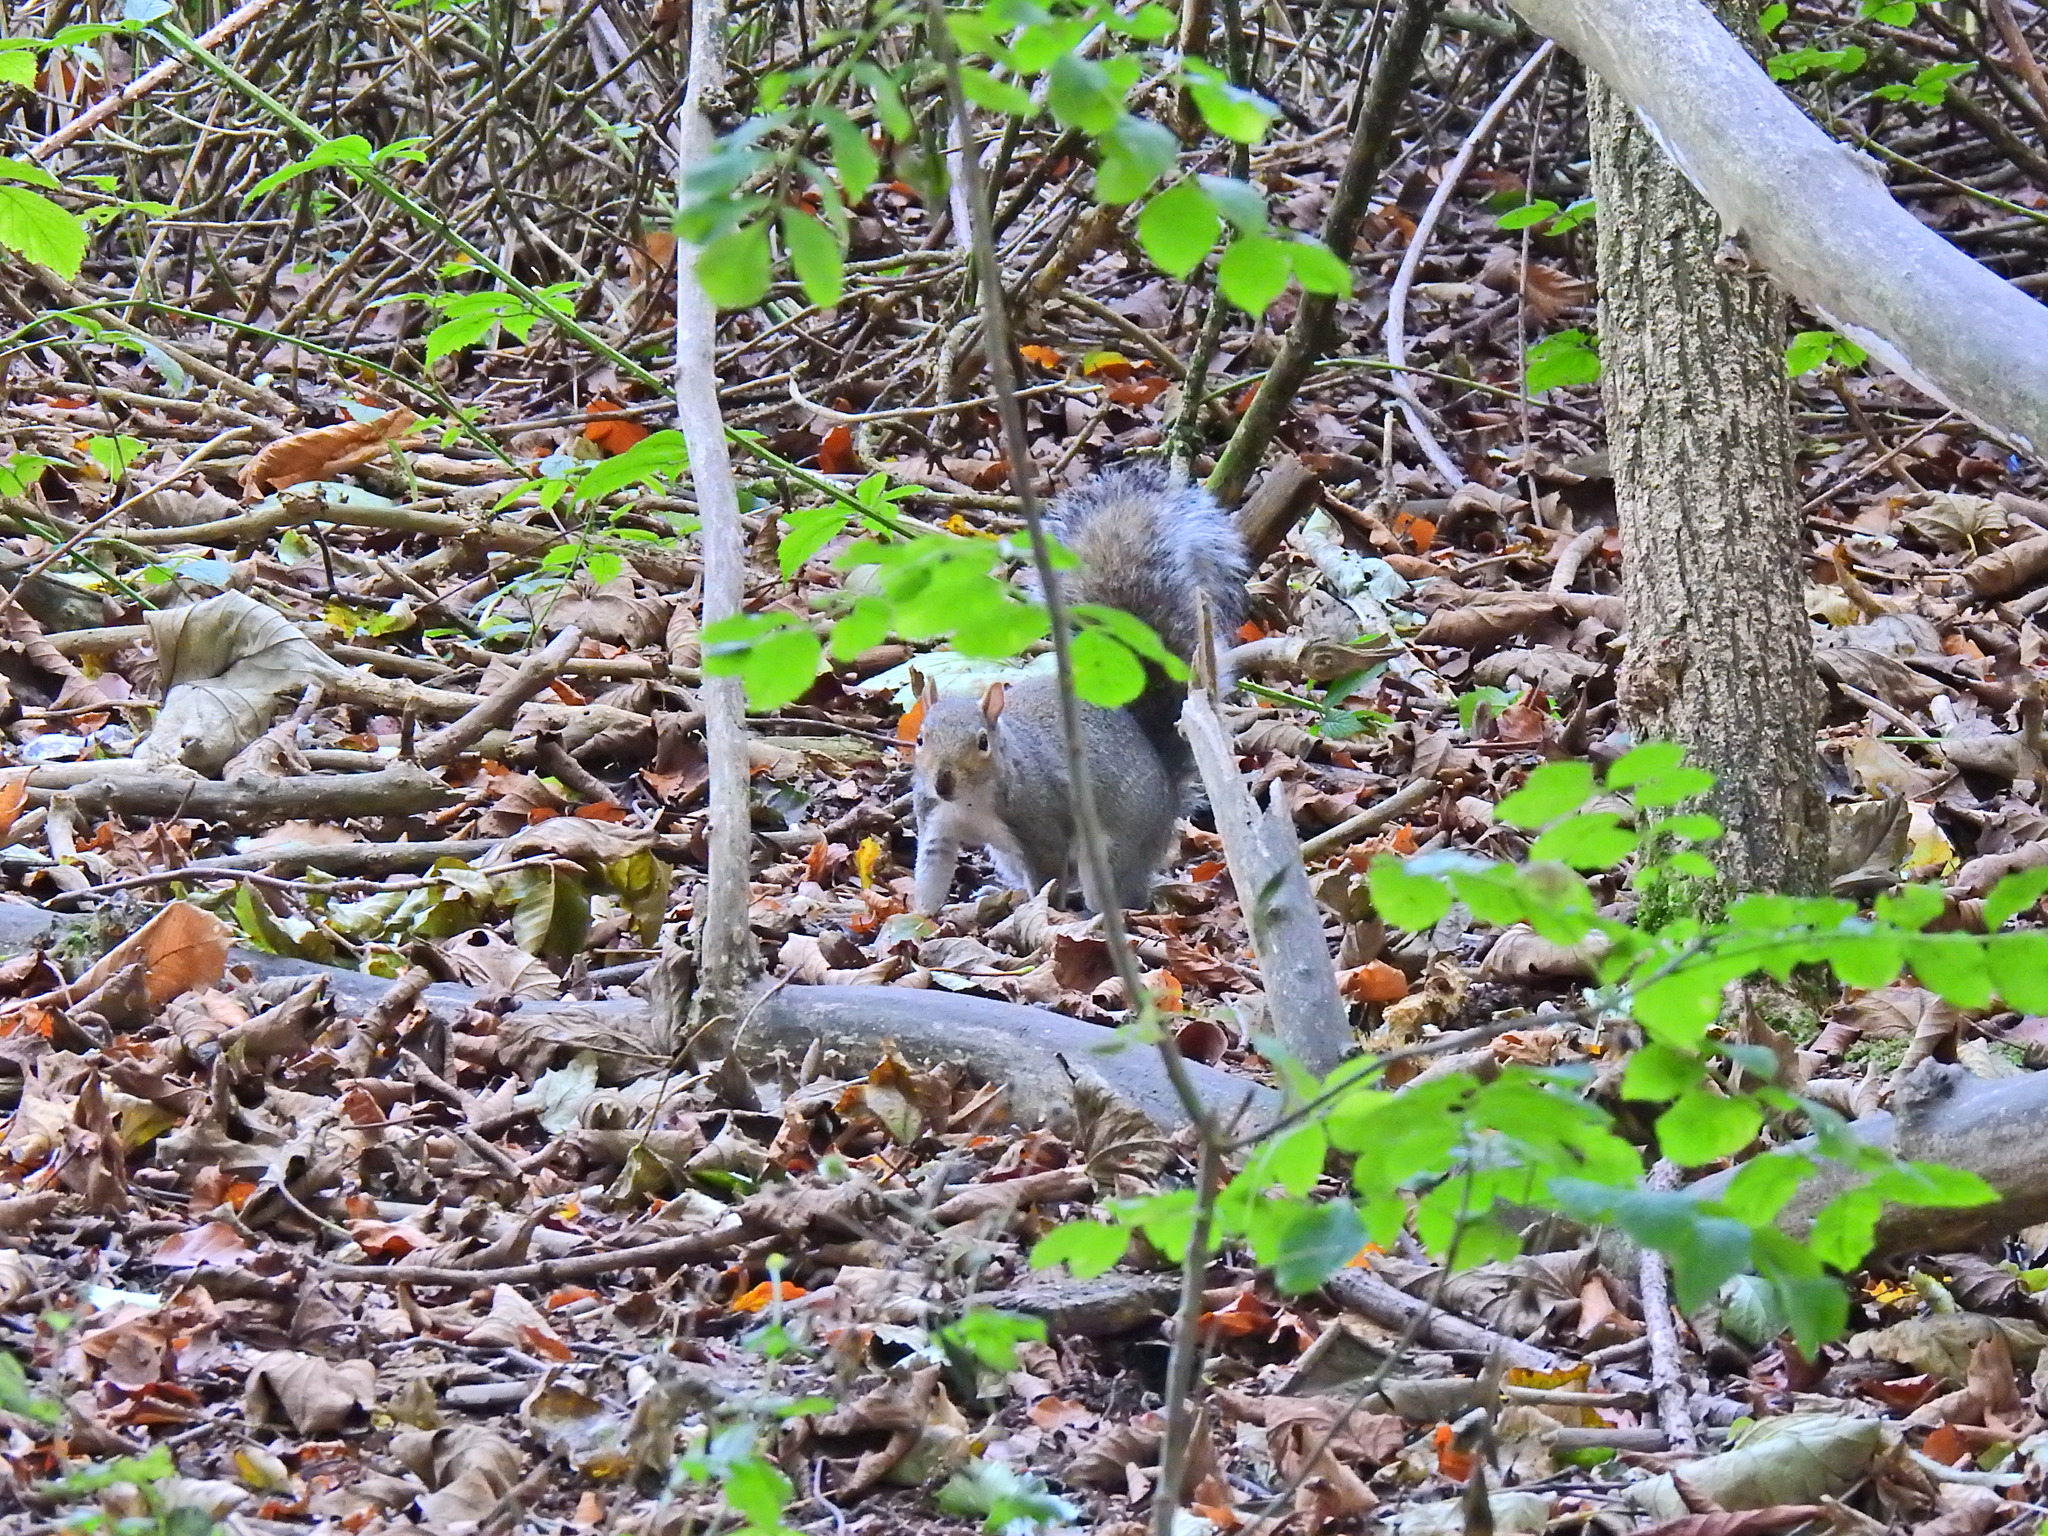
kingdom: Animalia
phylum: Chordata
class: Mammalia
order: Rodentia
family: Sciuridae
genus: Sciurus
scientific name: Sciurus carolinensis
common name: Eastern gray squirrel
